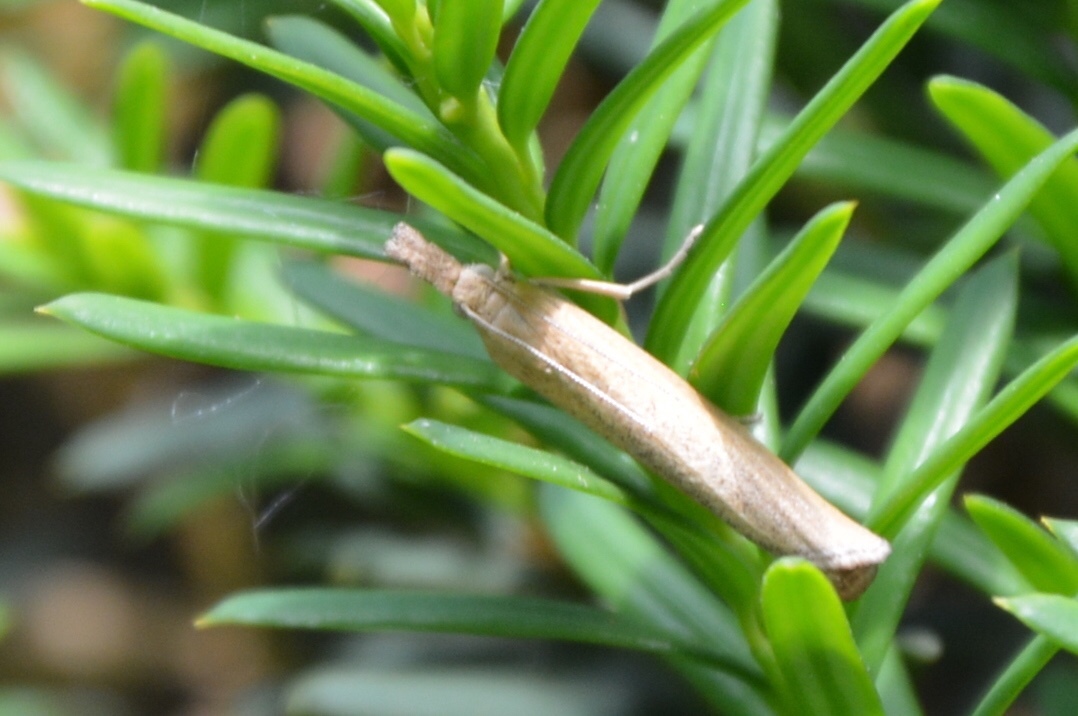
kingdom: Animalia
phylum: Arthropoda
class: Insecta
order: Lepidoptera
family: Crambidae
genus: Pediasia
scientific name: Pediasia luteella
